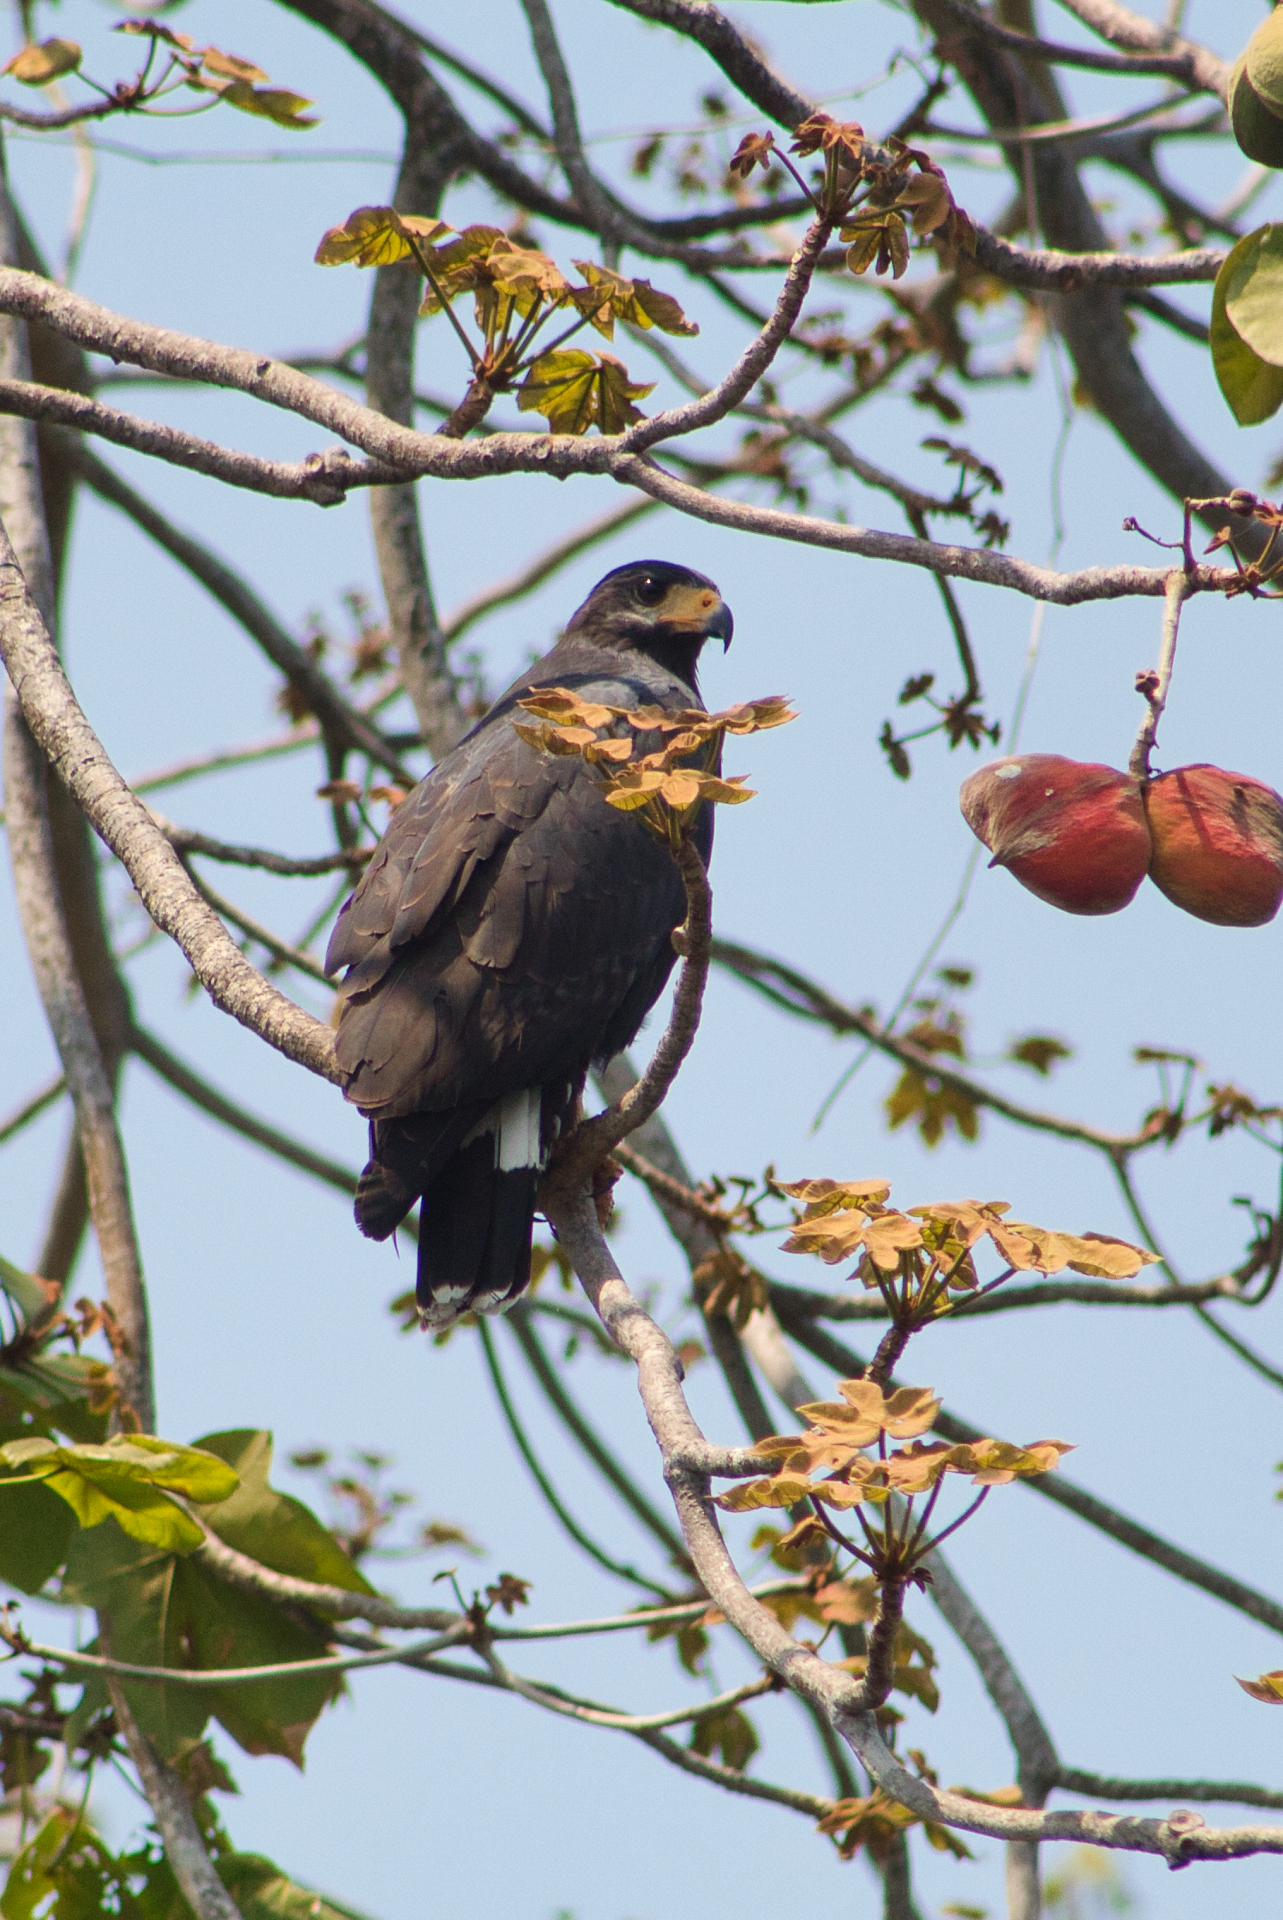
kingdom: Animalia
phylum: Chordata
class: Aves
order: Accipitriformes
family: Accipitridae
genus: Buteogallus
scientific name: Buteogallus anthracinus
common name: Common black hawk
